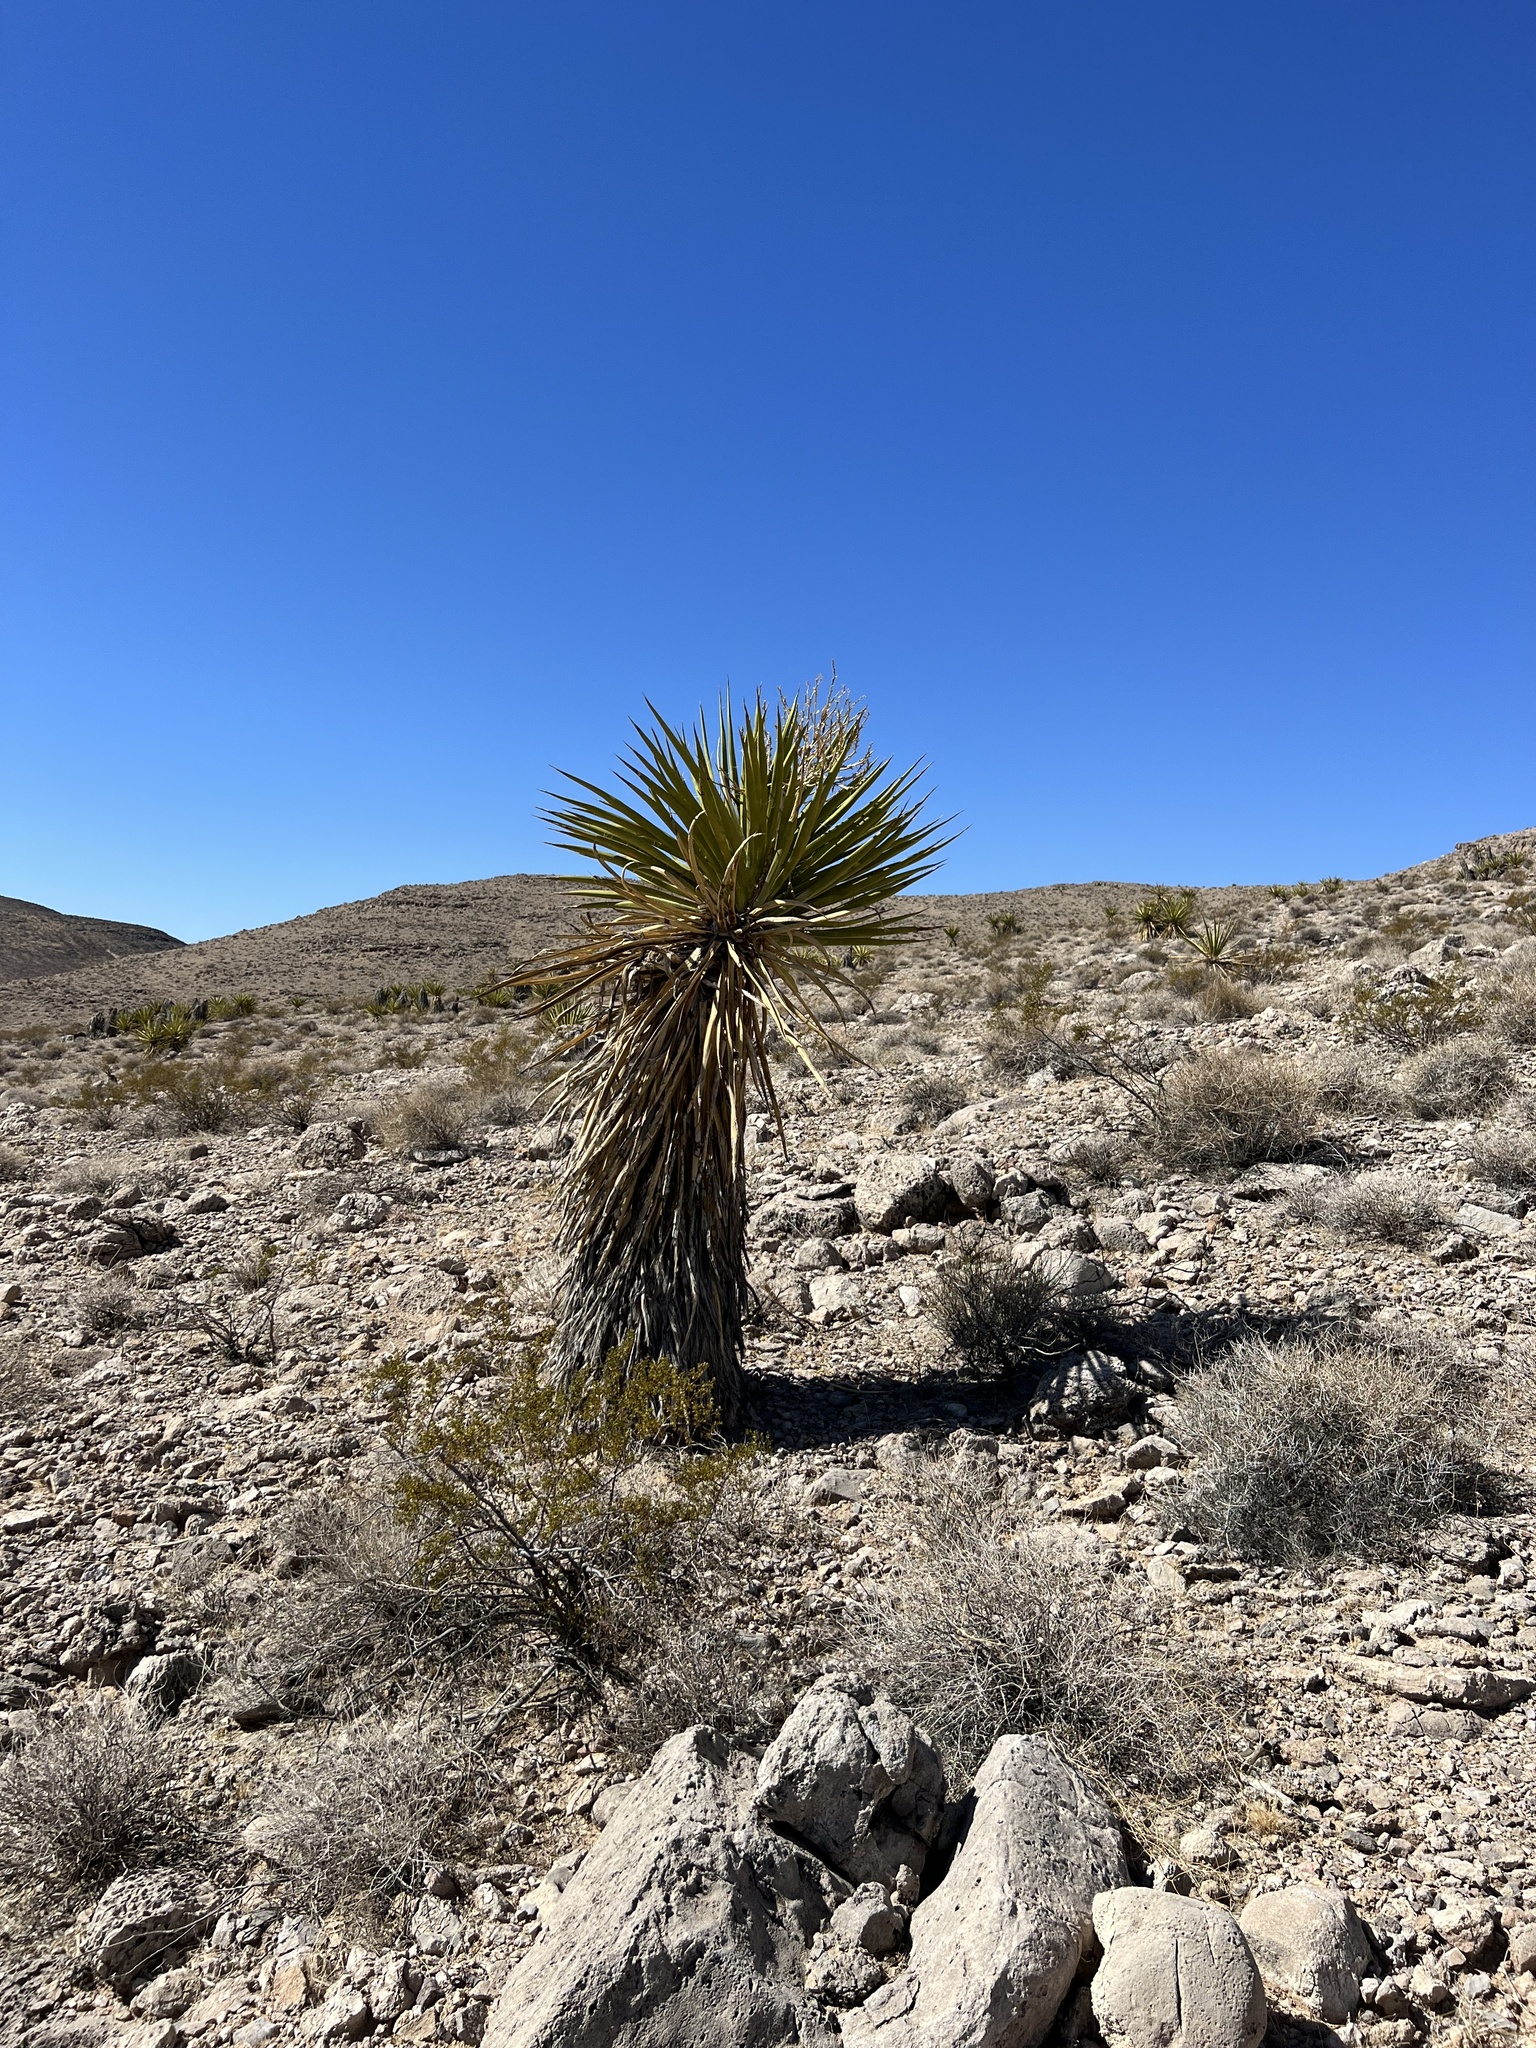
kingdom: Plantae
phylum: Tracheophyta
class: Liliopsida
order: Asparagales
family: Asparagaceae
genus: Yucca
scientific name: Yucca schidigera
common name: Mojave yucca
